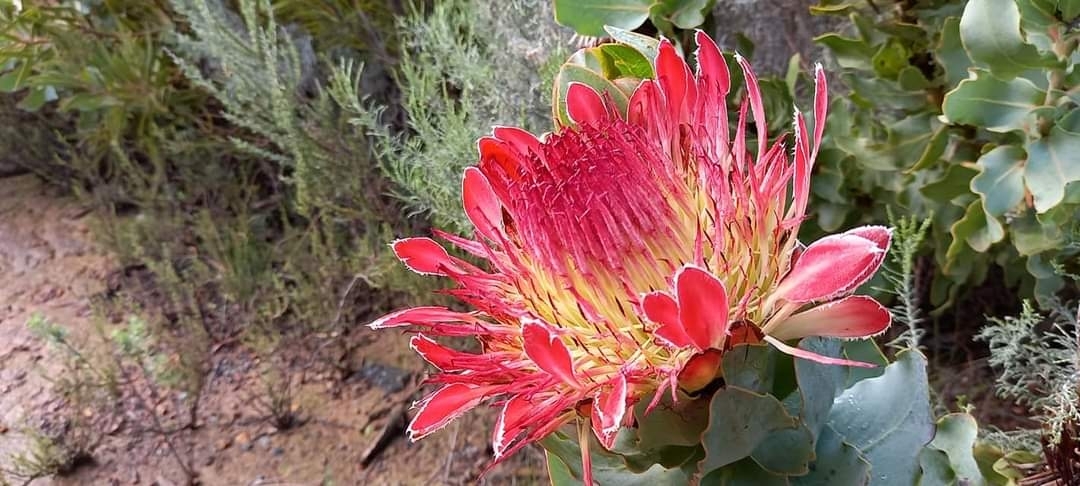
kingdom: Plantae
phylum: Tracheophyta
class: Magnoliopsida
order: Proteales
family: Proteaceae
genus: Protea
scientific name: Protea eximia
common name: Broad-leaved sugarbush
